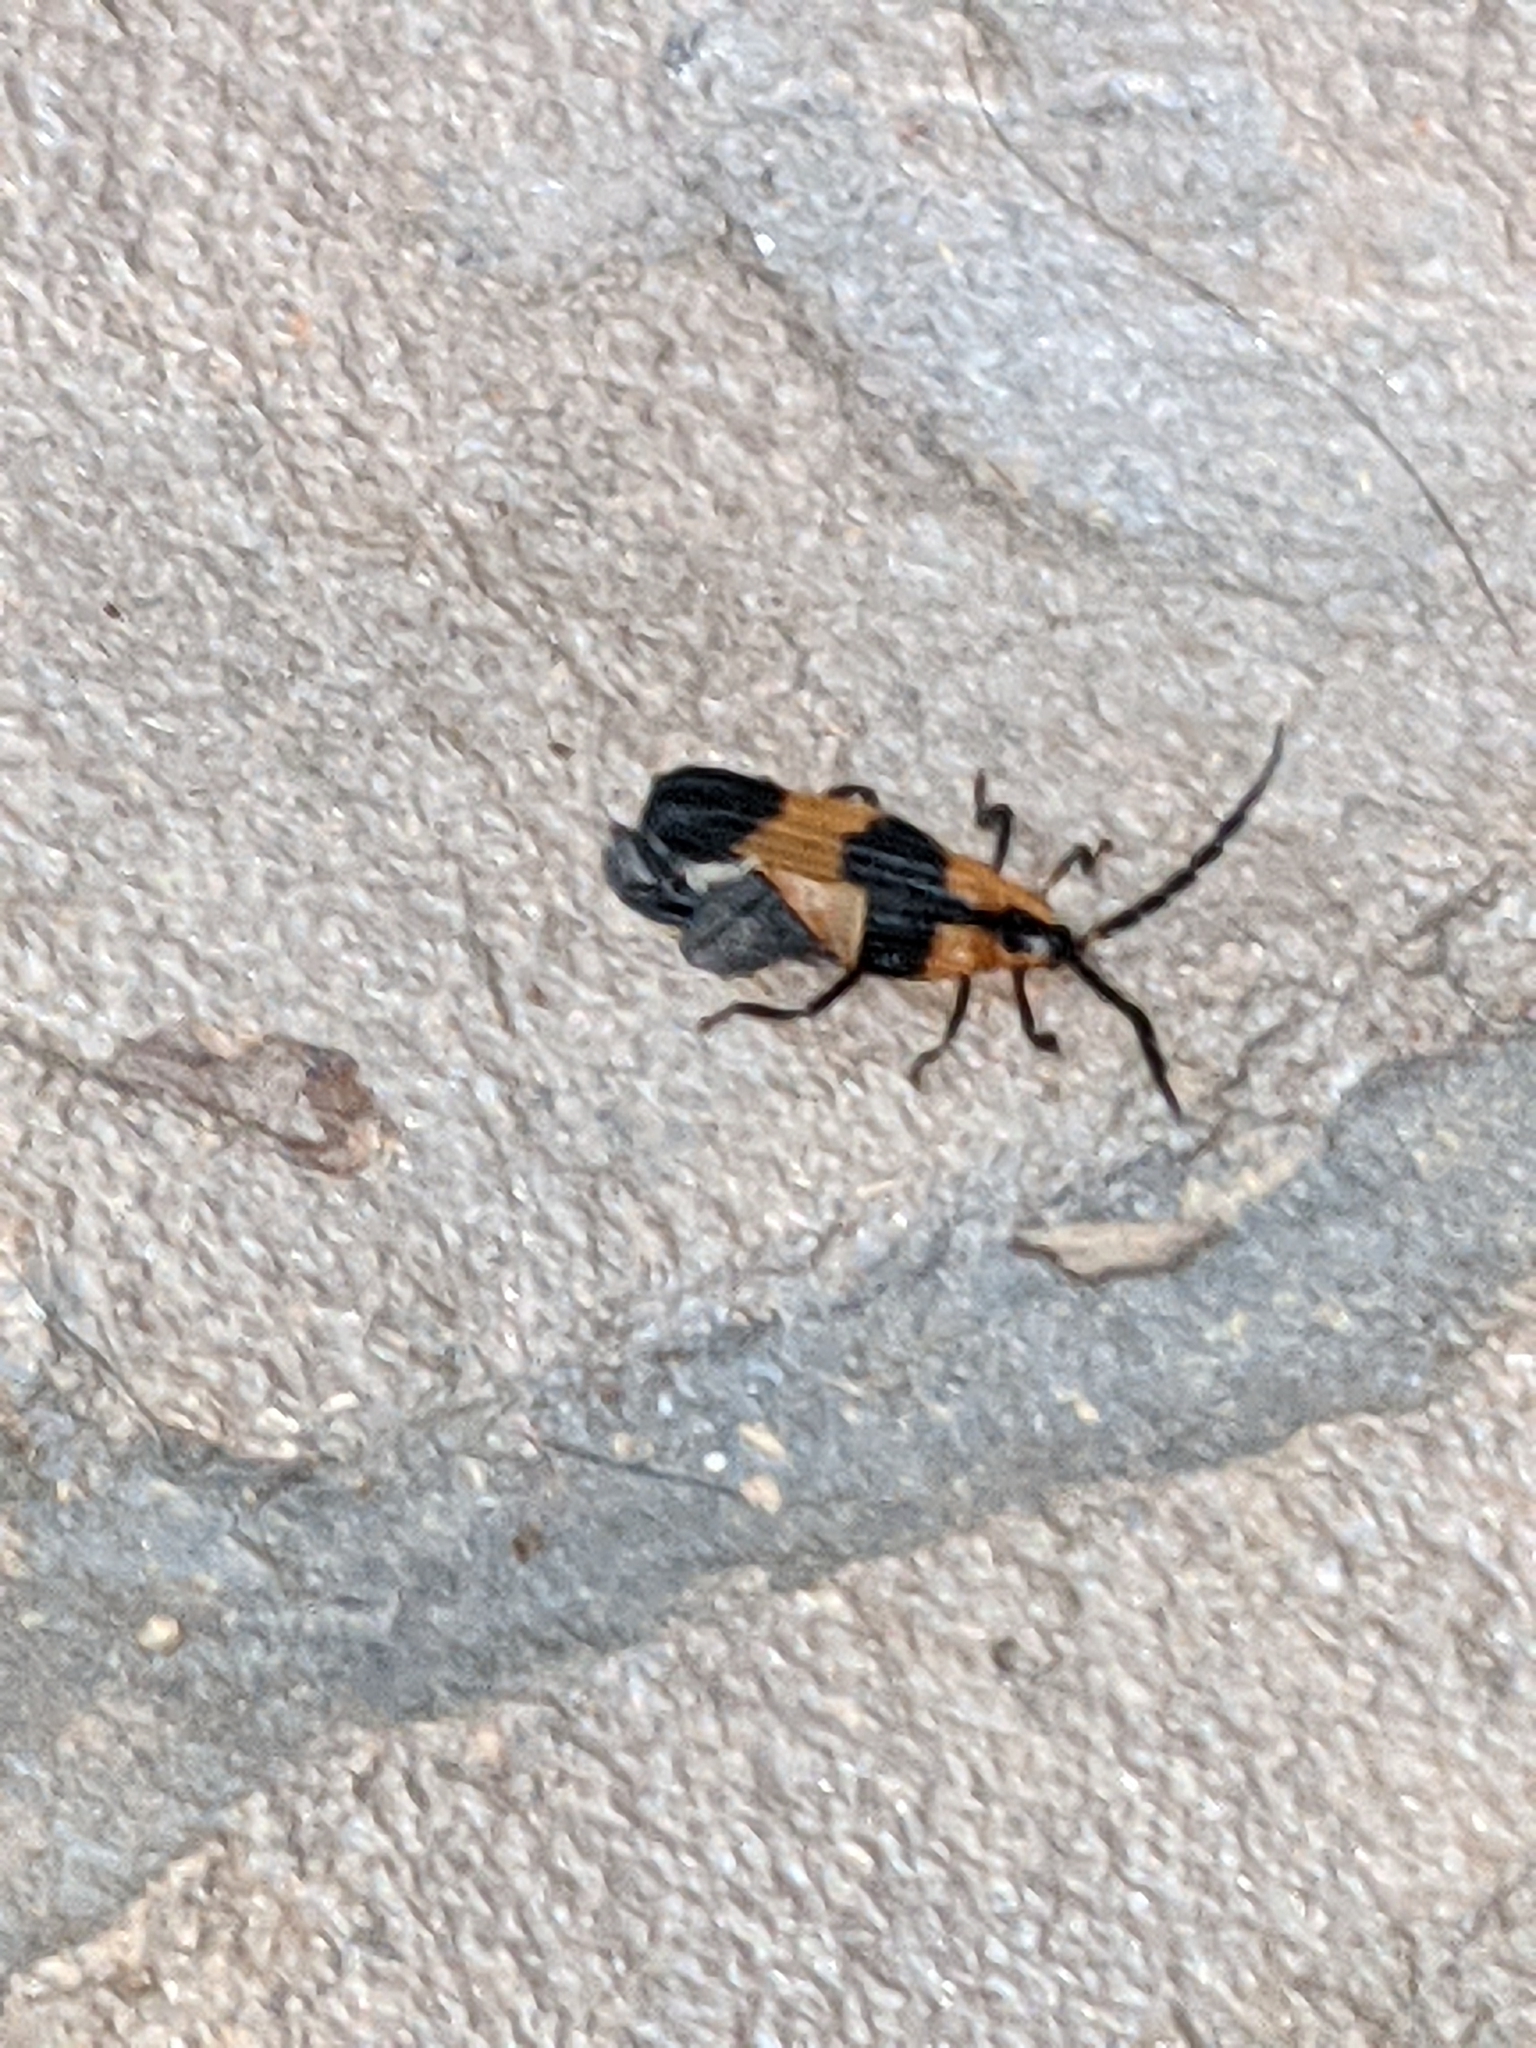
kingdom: Animalia
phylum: Arthropoda
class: Insecta
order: Coleoptera
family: Lycidae
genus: Calopteron
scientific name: Calopteron reticulatum
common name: Banded net-winged beetle
